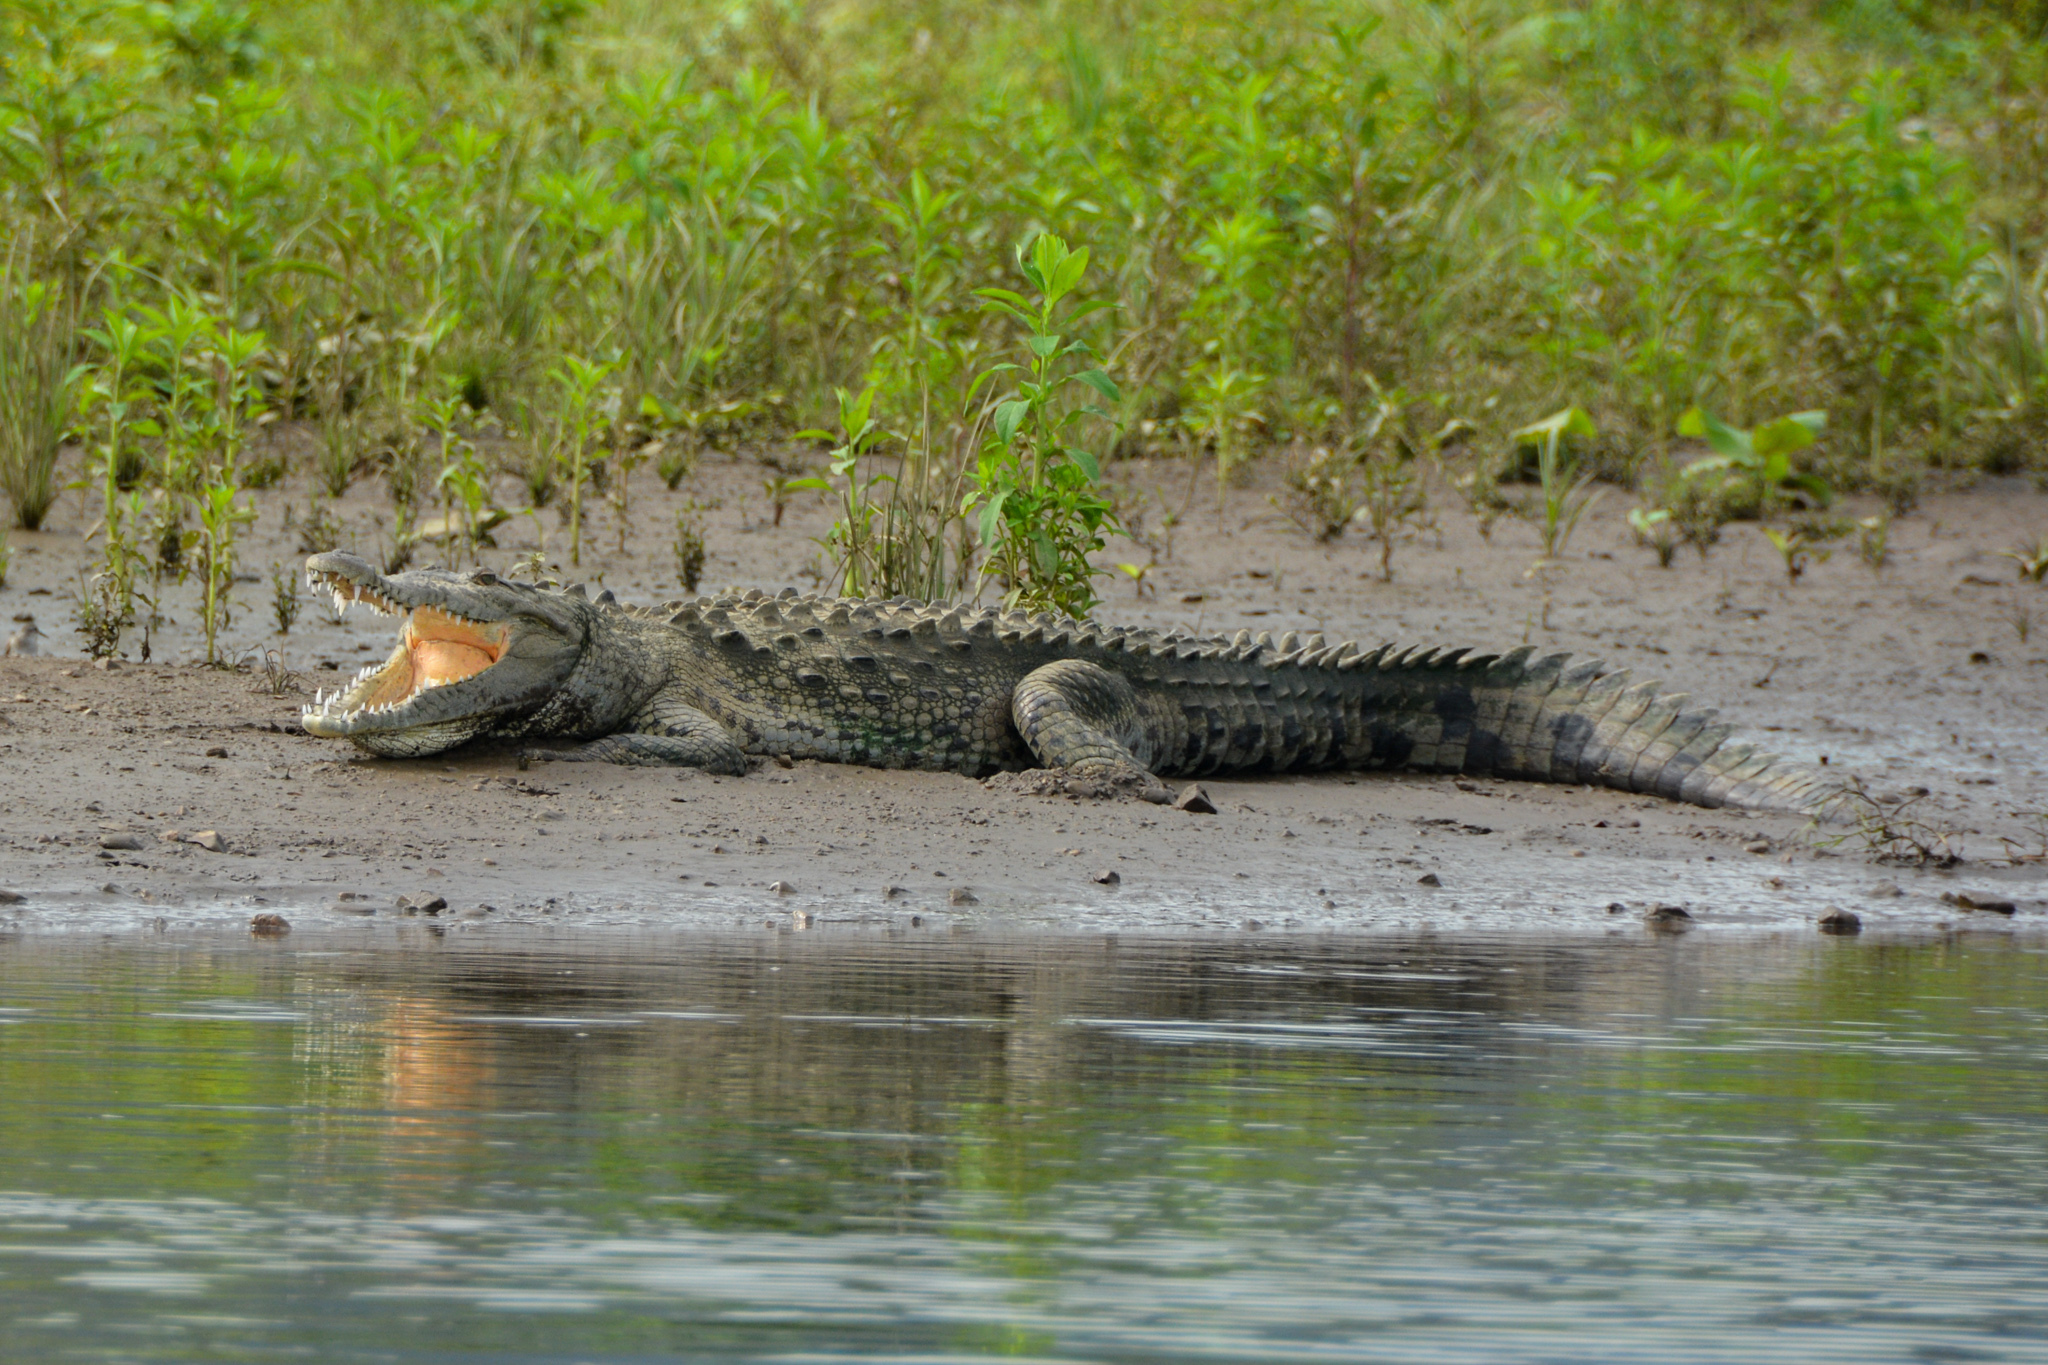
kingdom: Animalia
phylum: Chordata
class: Crocodylia
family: Crocodylidae
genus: Crocodylus
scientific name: Crocodylus acutus
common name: American crocodile
